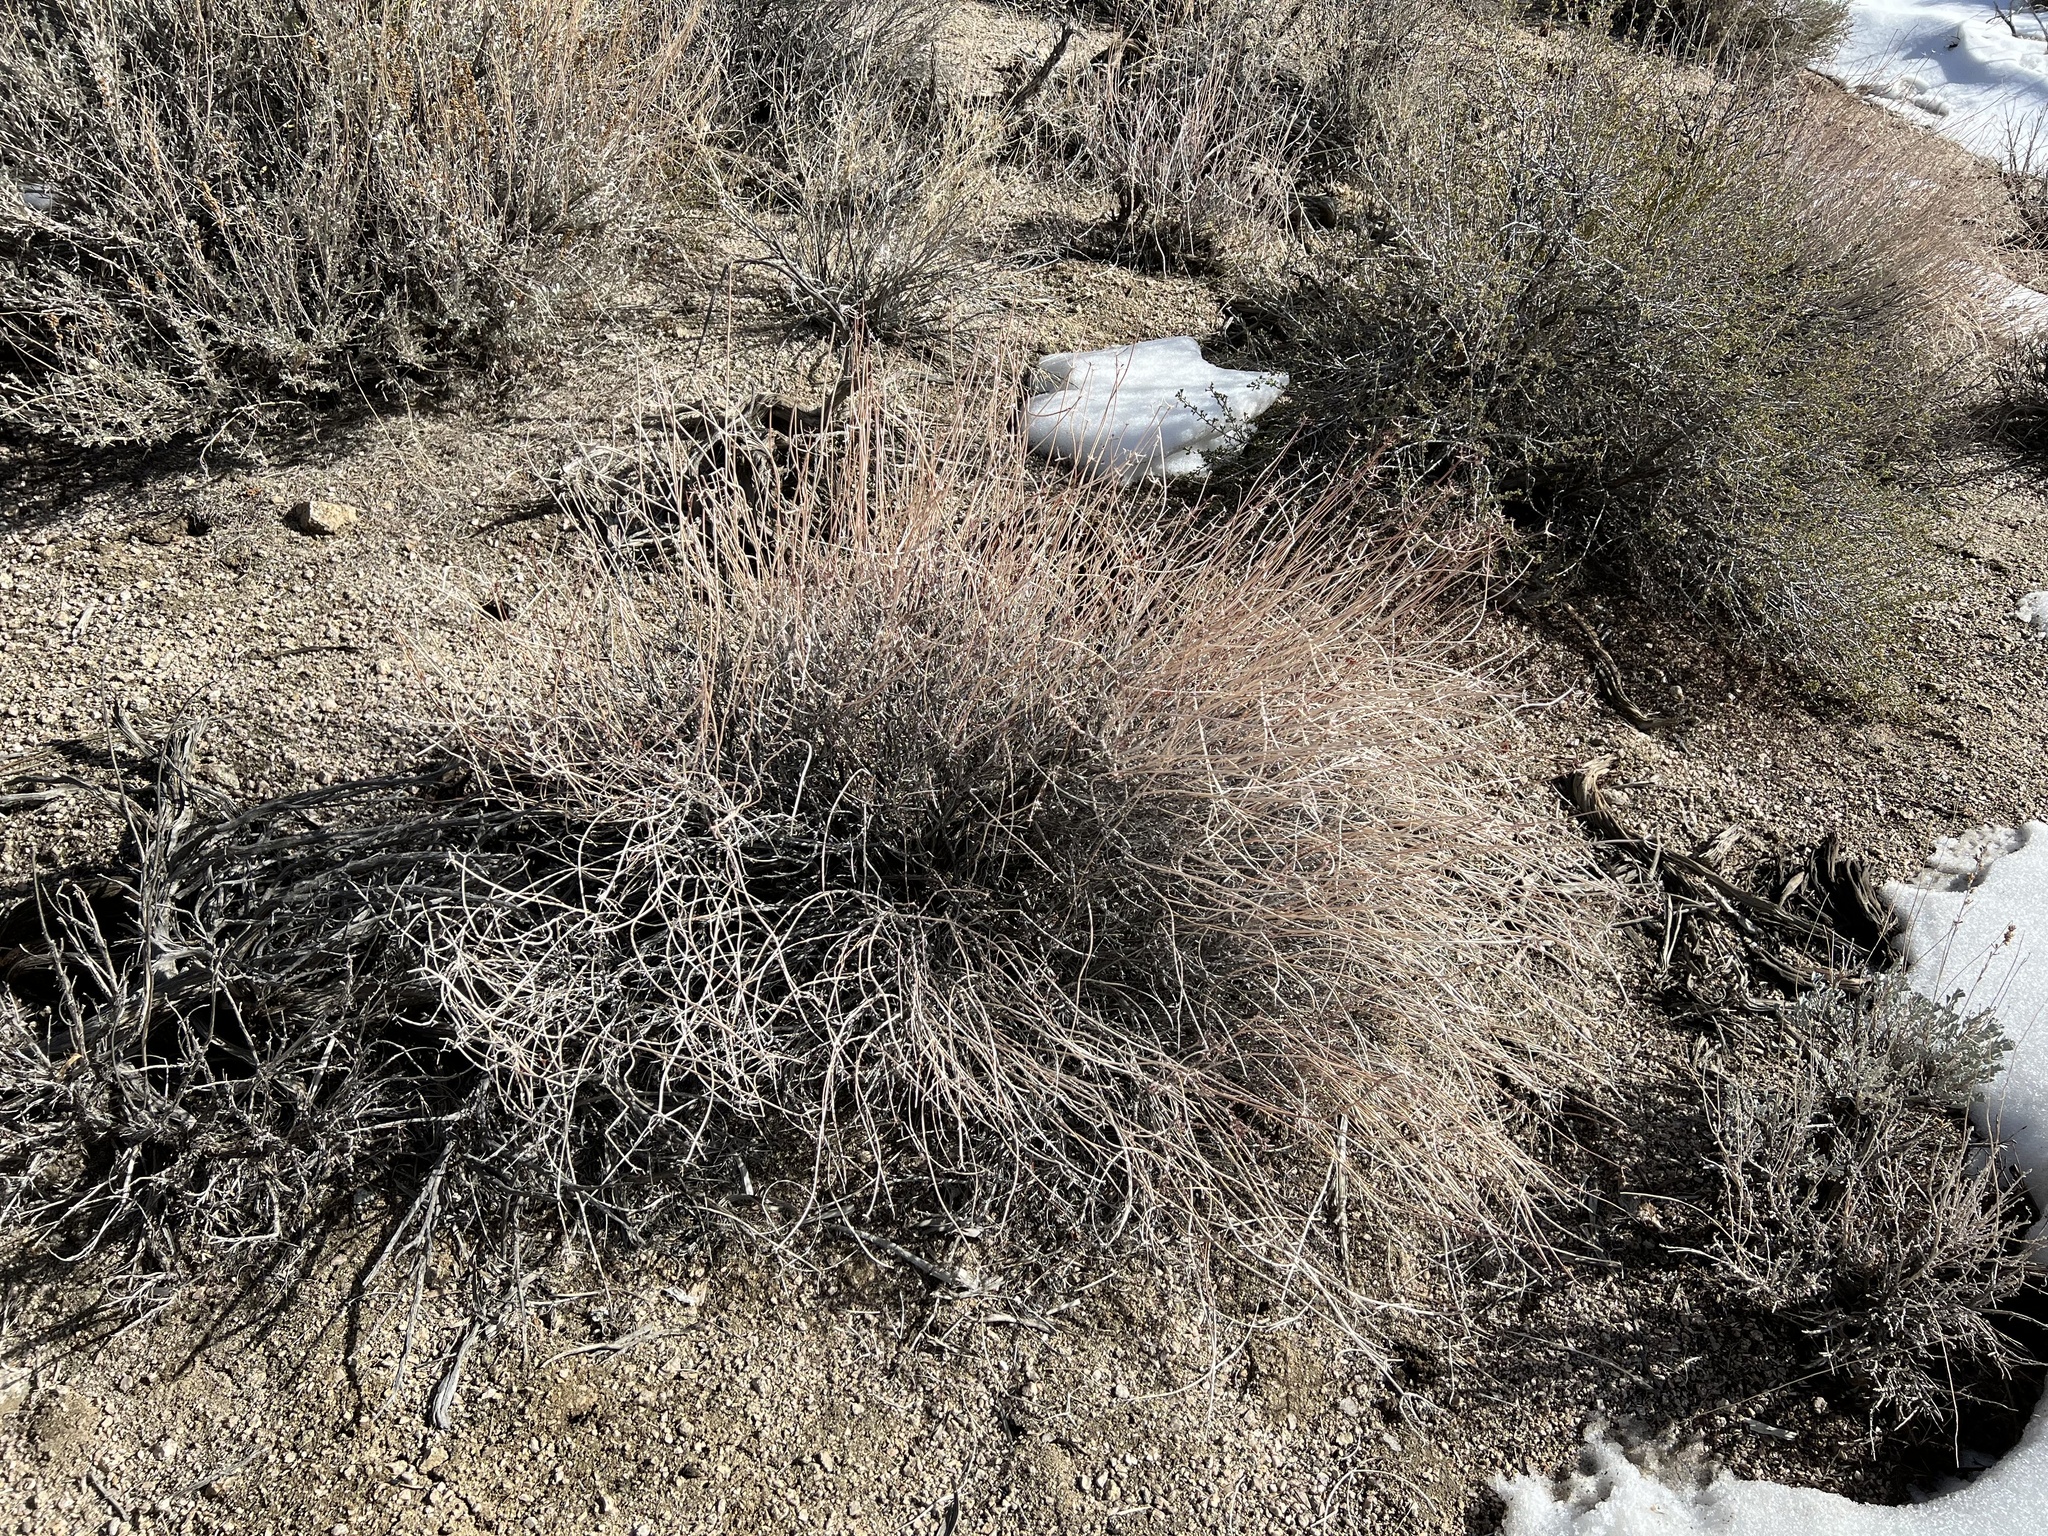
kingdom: Plantae
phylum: Tracheophyta
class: Magnoliopsida
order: Caryophyllales
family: Polygonaceae
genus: Eriogonum
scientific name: Eriogonum fasciculatum
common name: California wild buckwheat
